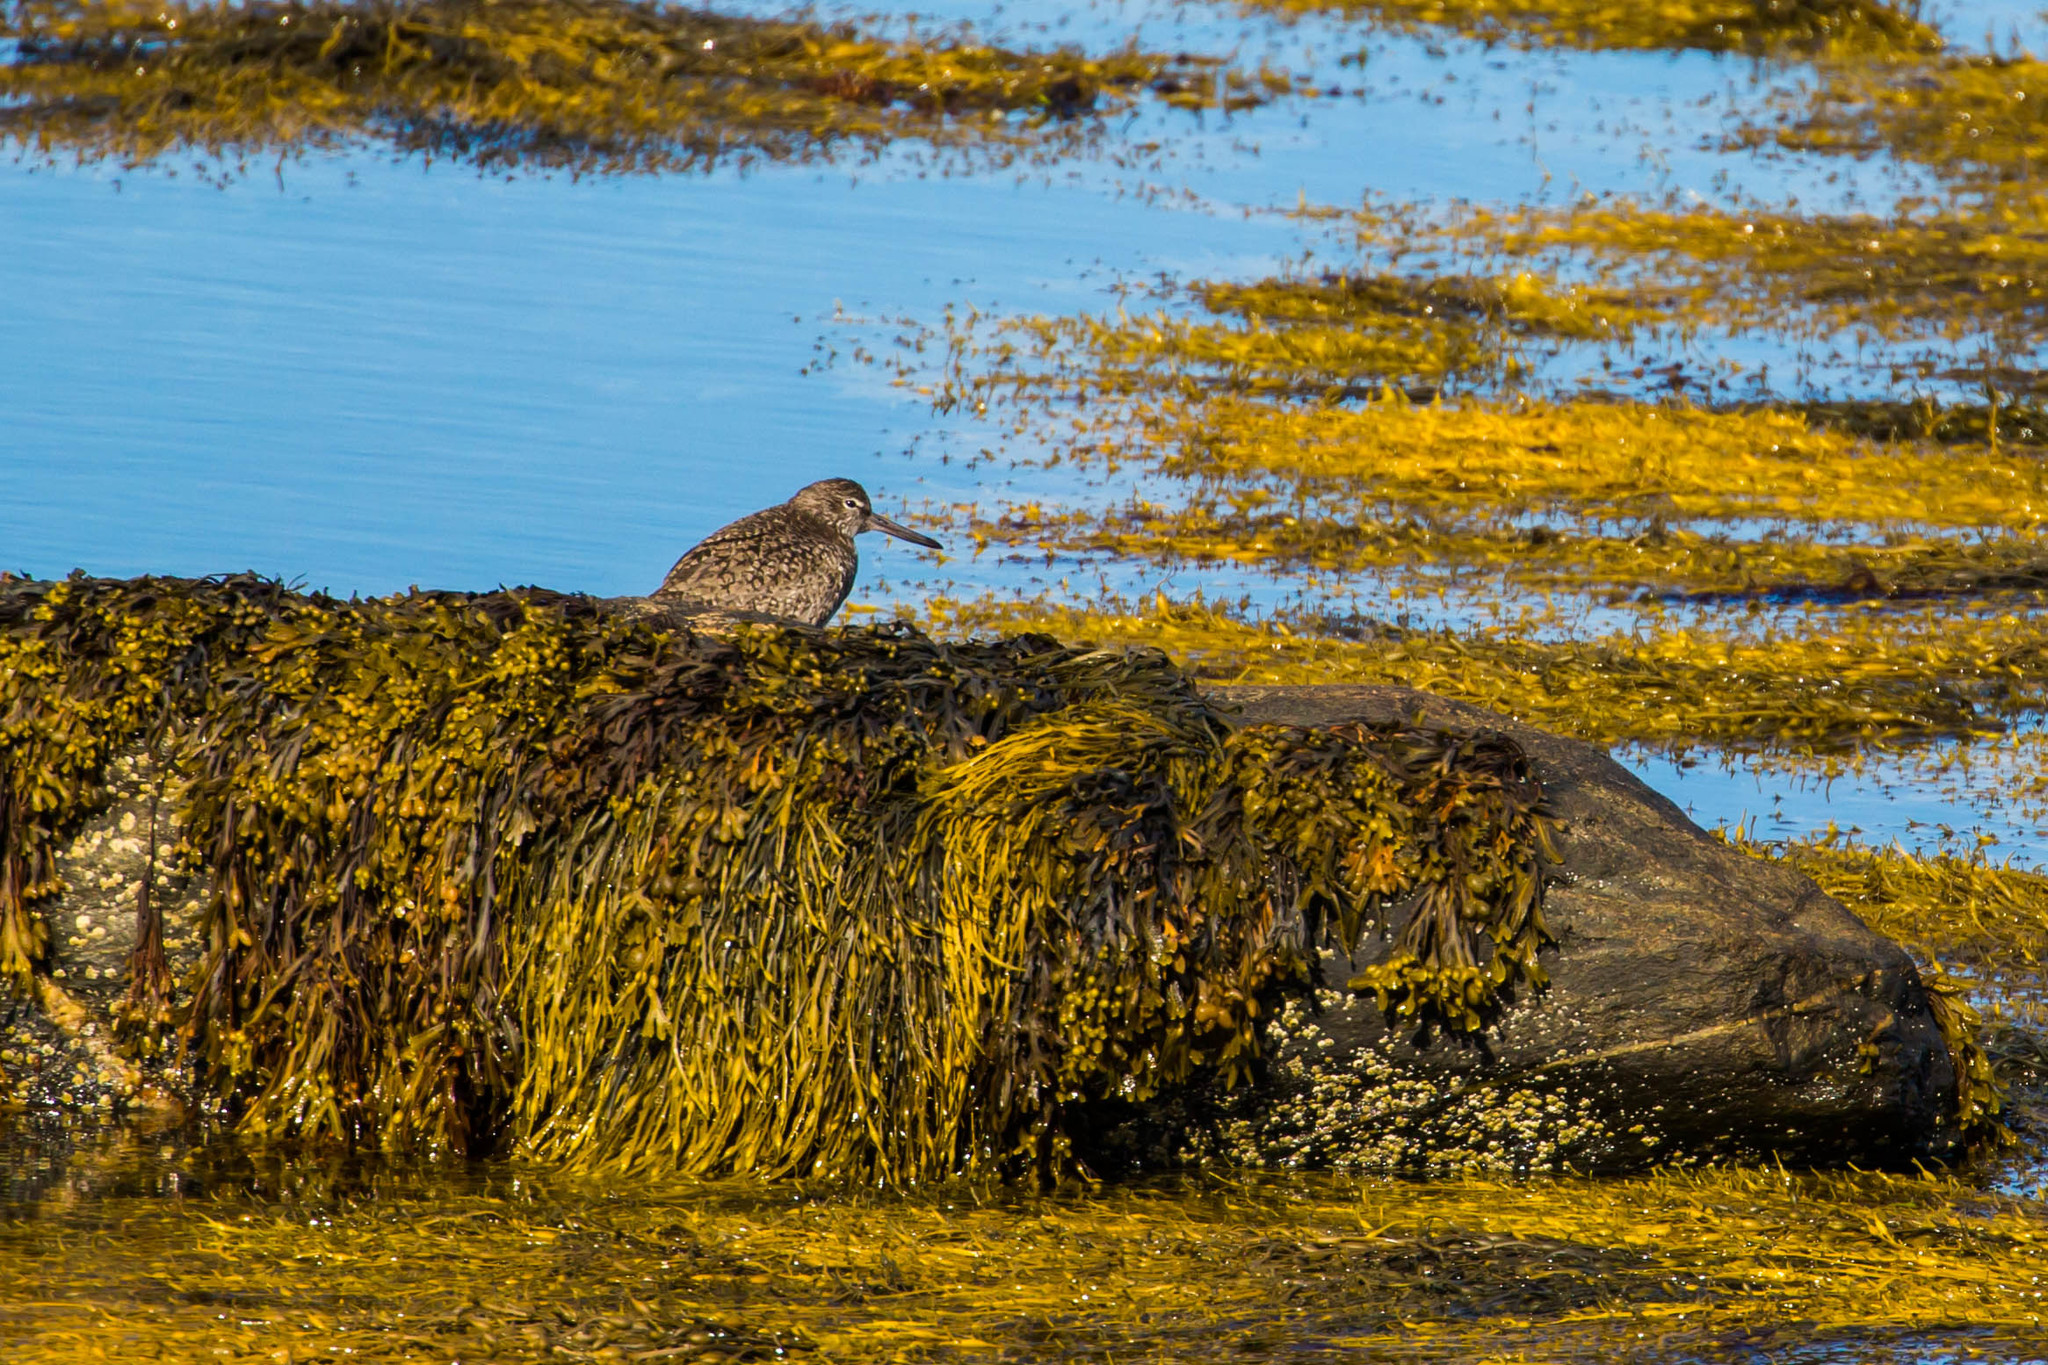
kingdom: Animalia
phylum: Chordata
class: Aves
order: Charadriiformes
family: Scolopacidae
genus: Tringa
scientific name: Tringa semipalmata
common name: Willet
